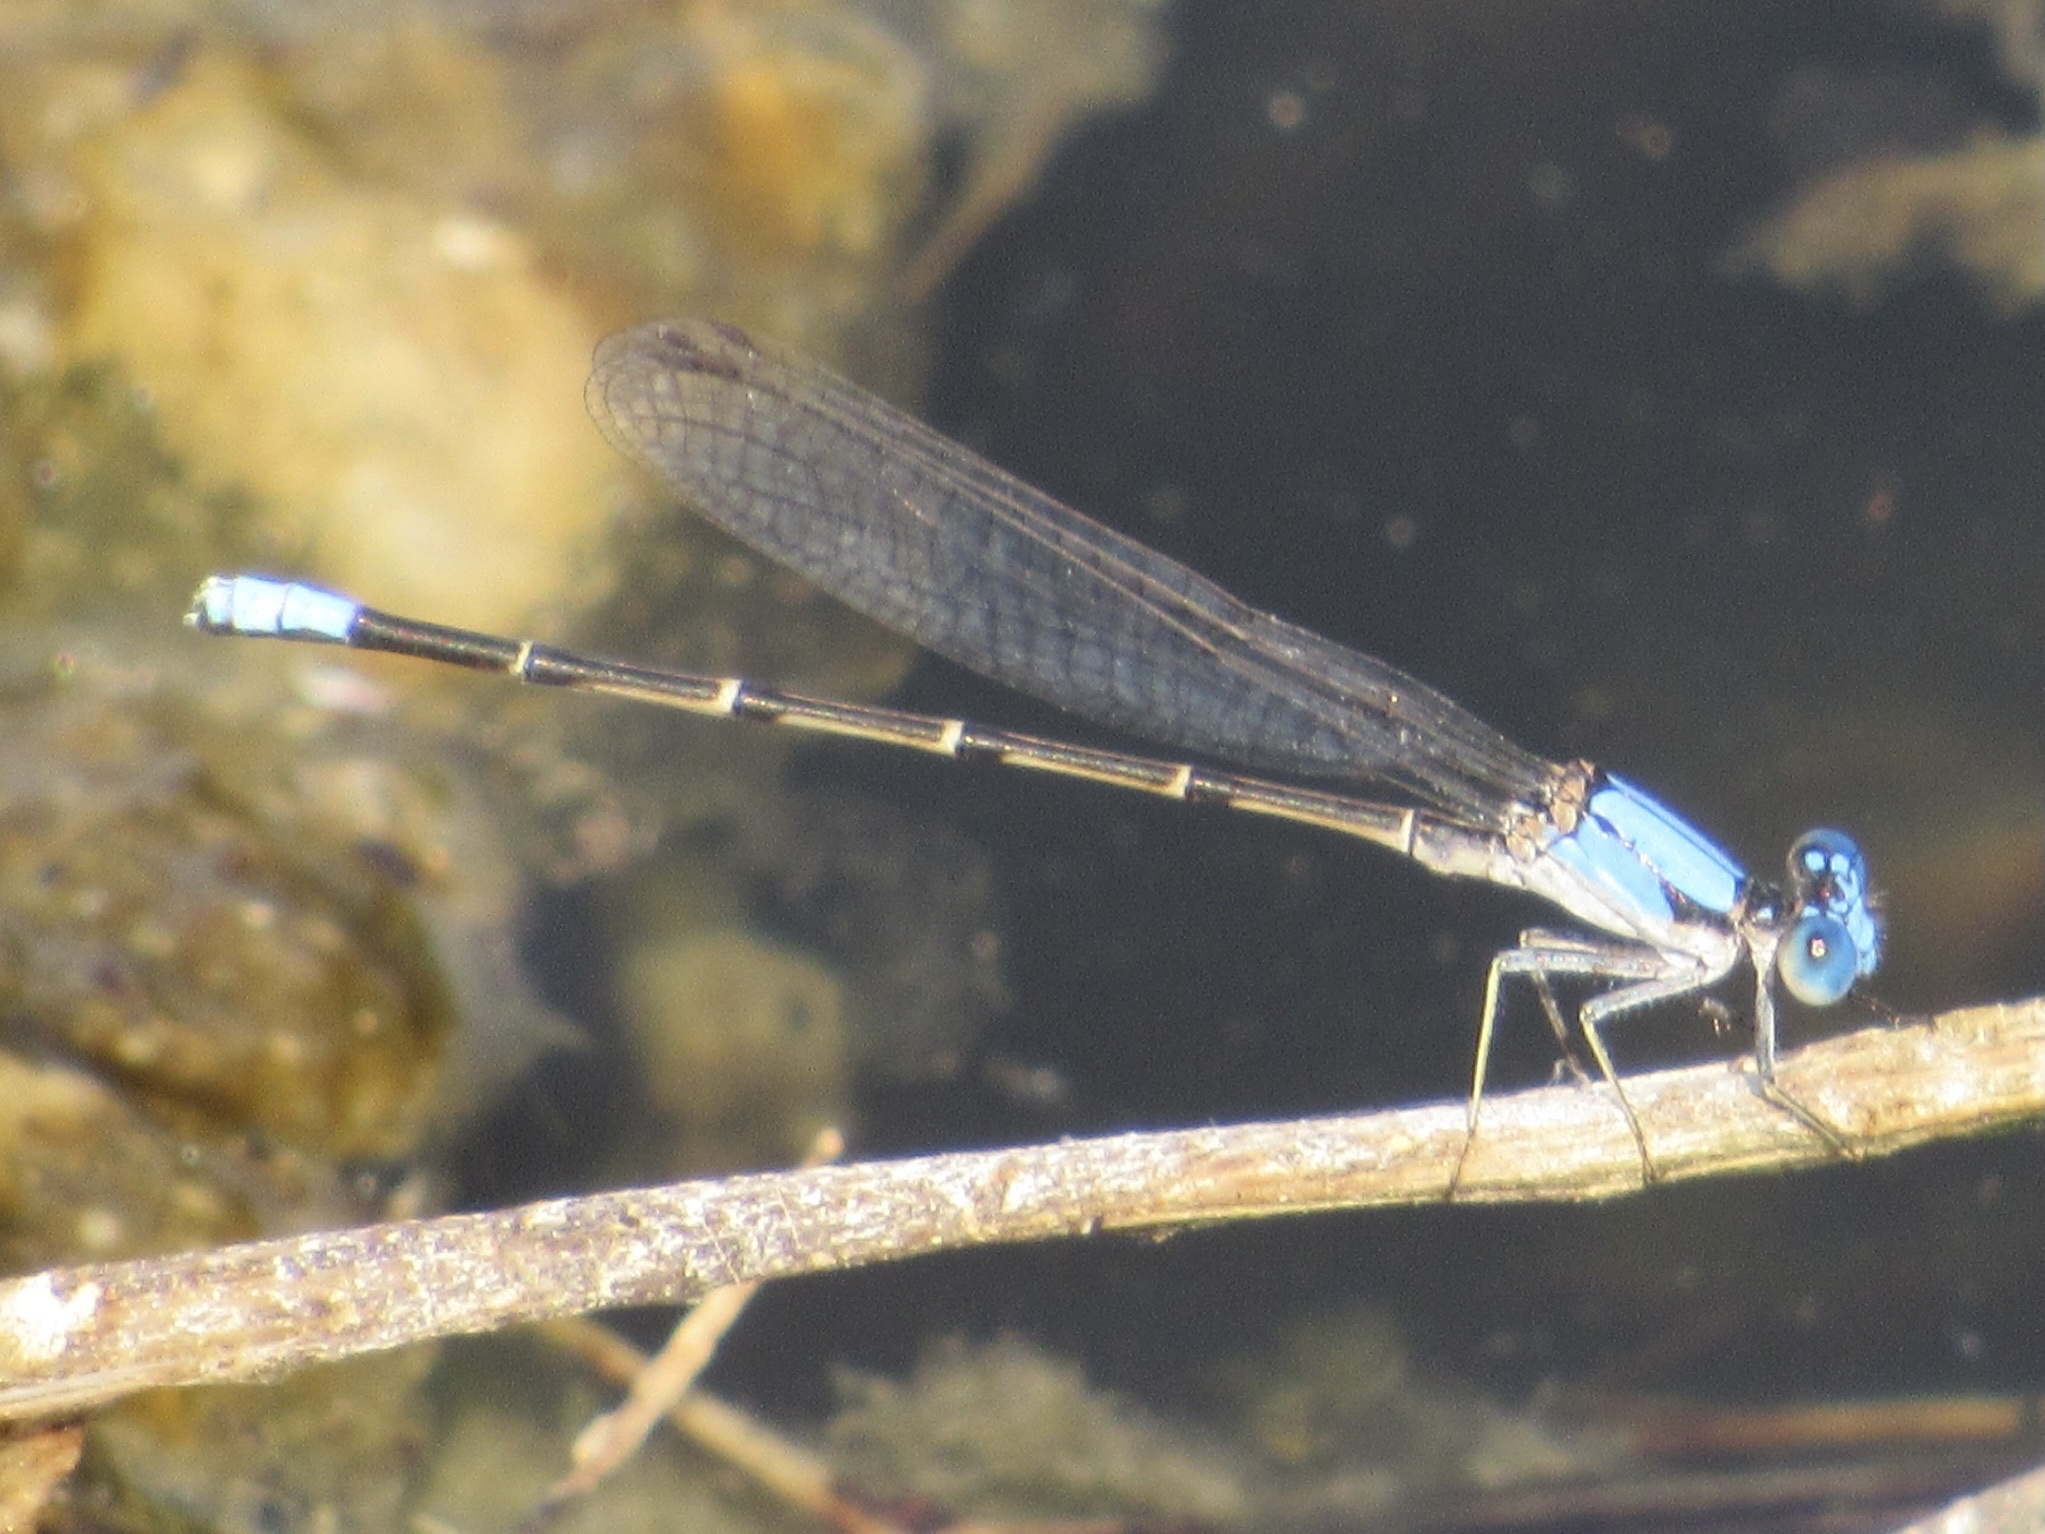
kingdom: Animalia
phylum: Arthropoda
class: Insecta
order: Odonata
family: Coenagrionidae
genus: Argia
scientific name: Argia apicalis
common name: Blue-fronted dancer
